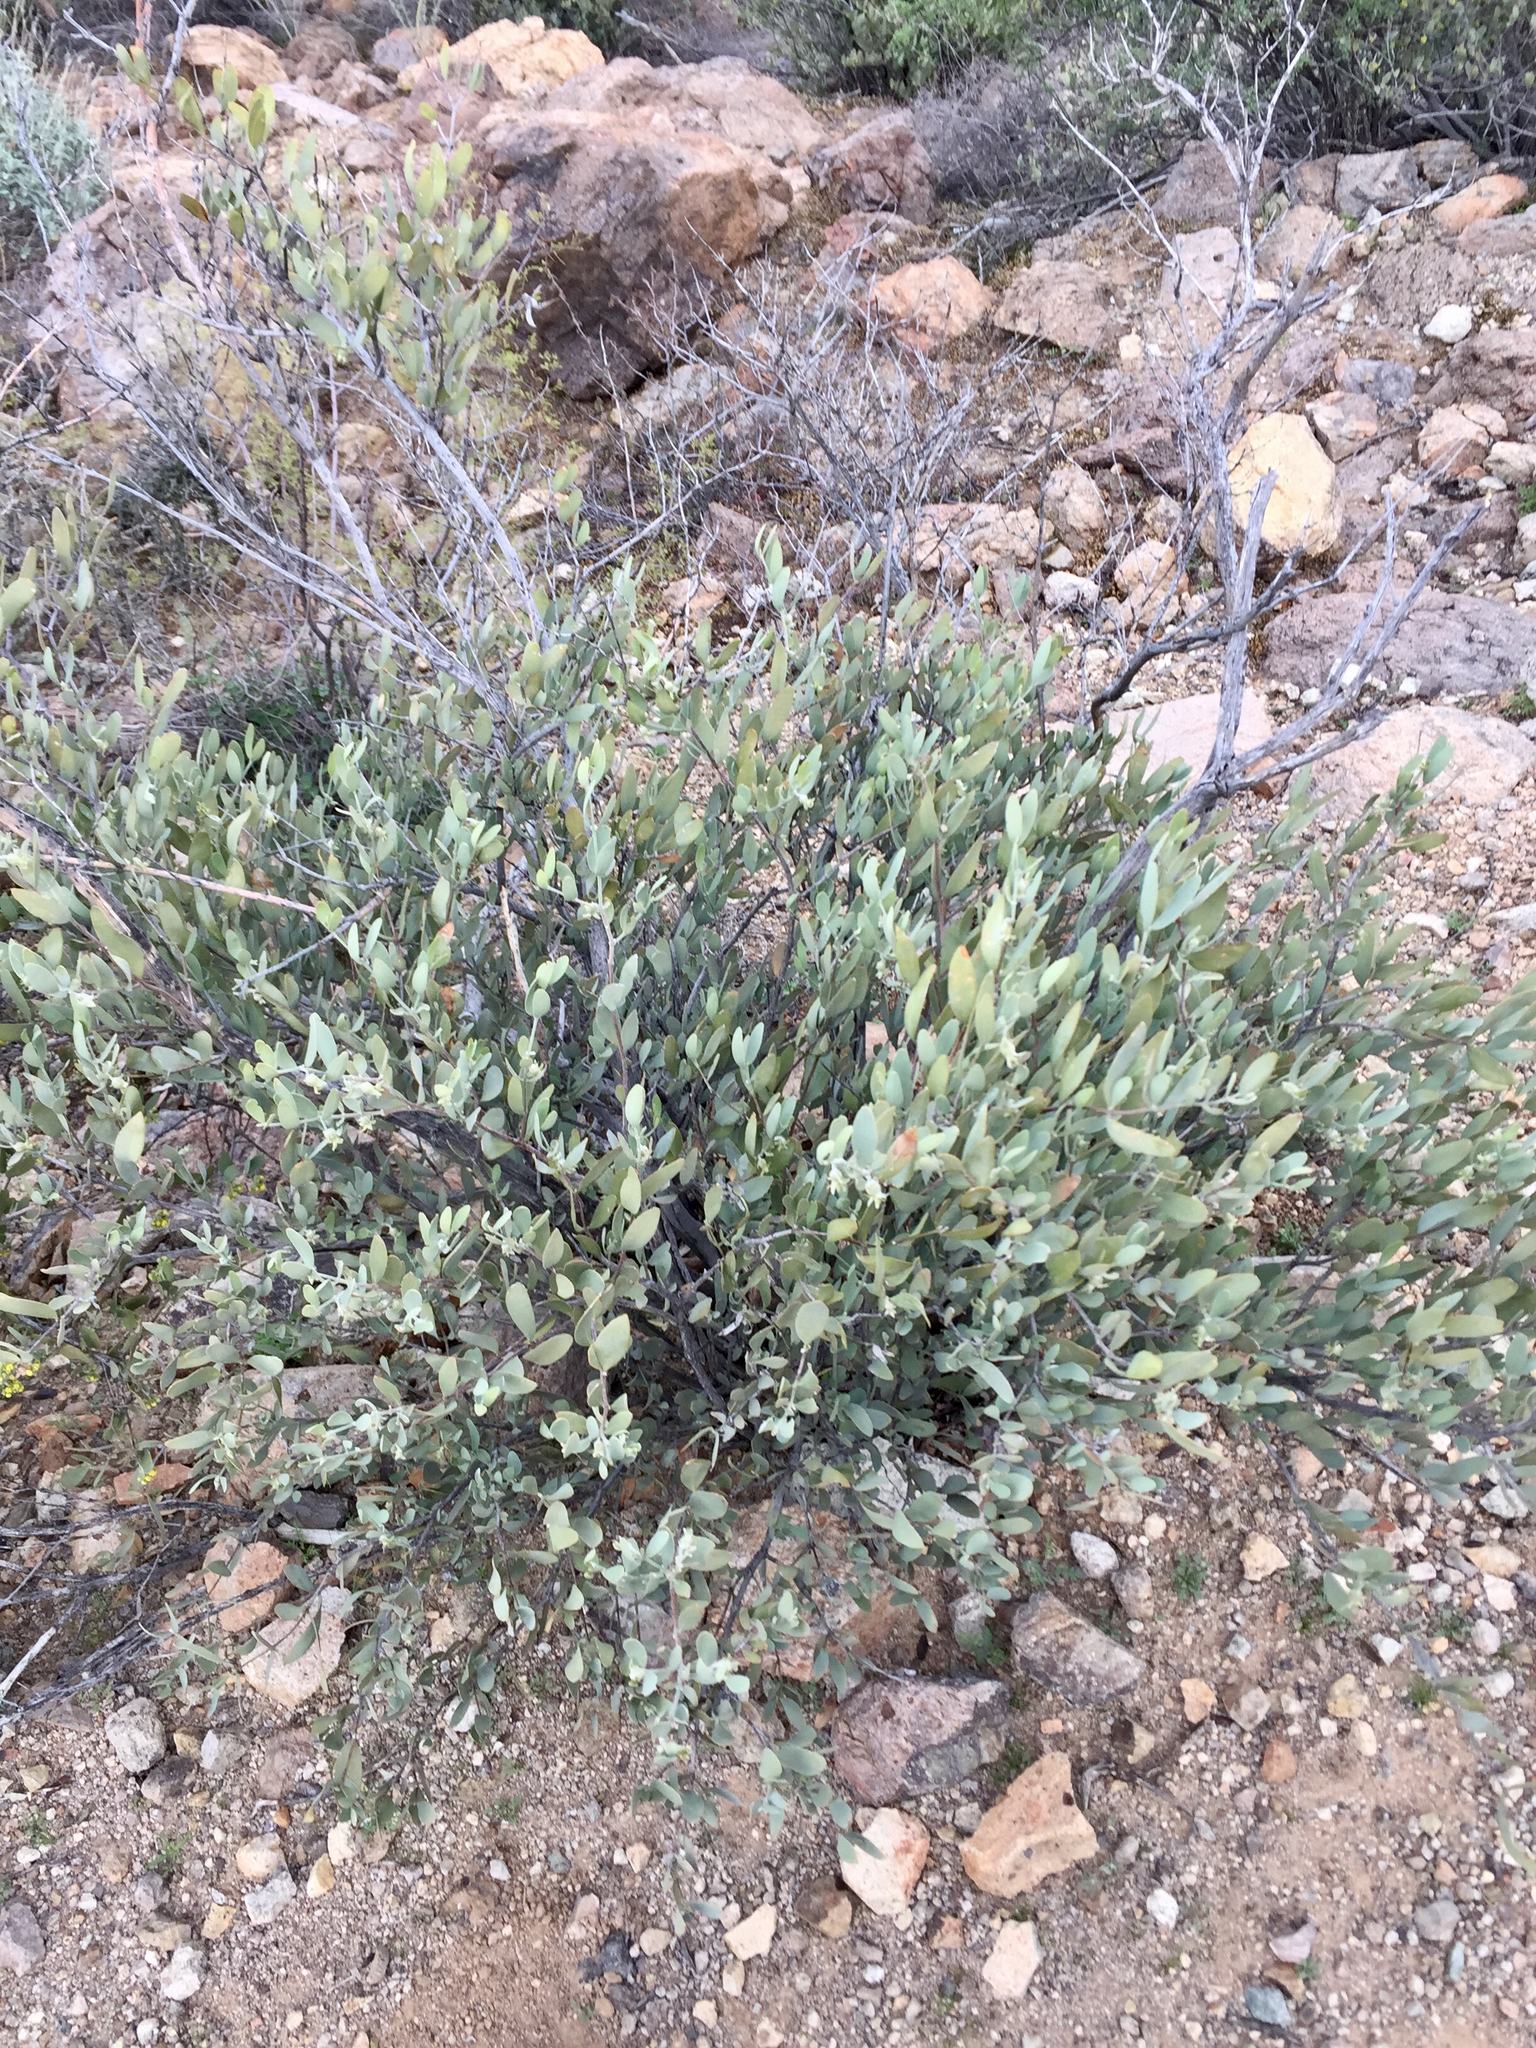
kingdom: Plantae
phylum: Tracheophyta
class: Magnoliopsida
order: Caryophyllales
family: Simmondsiaceae
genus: Simmondsia
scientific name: Simmondsia chinensis
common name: Jojoba
